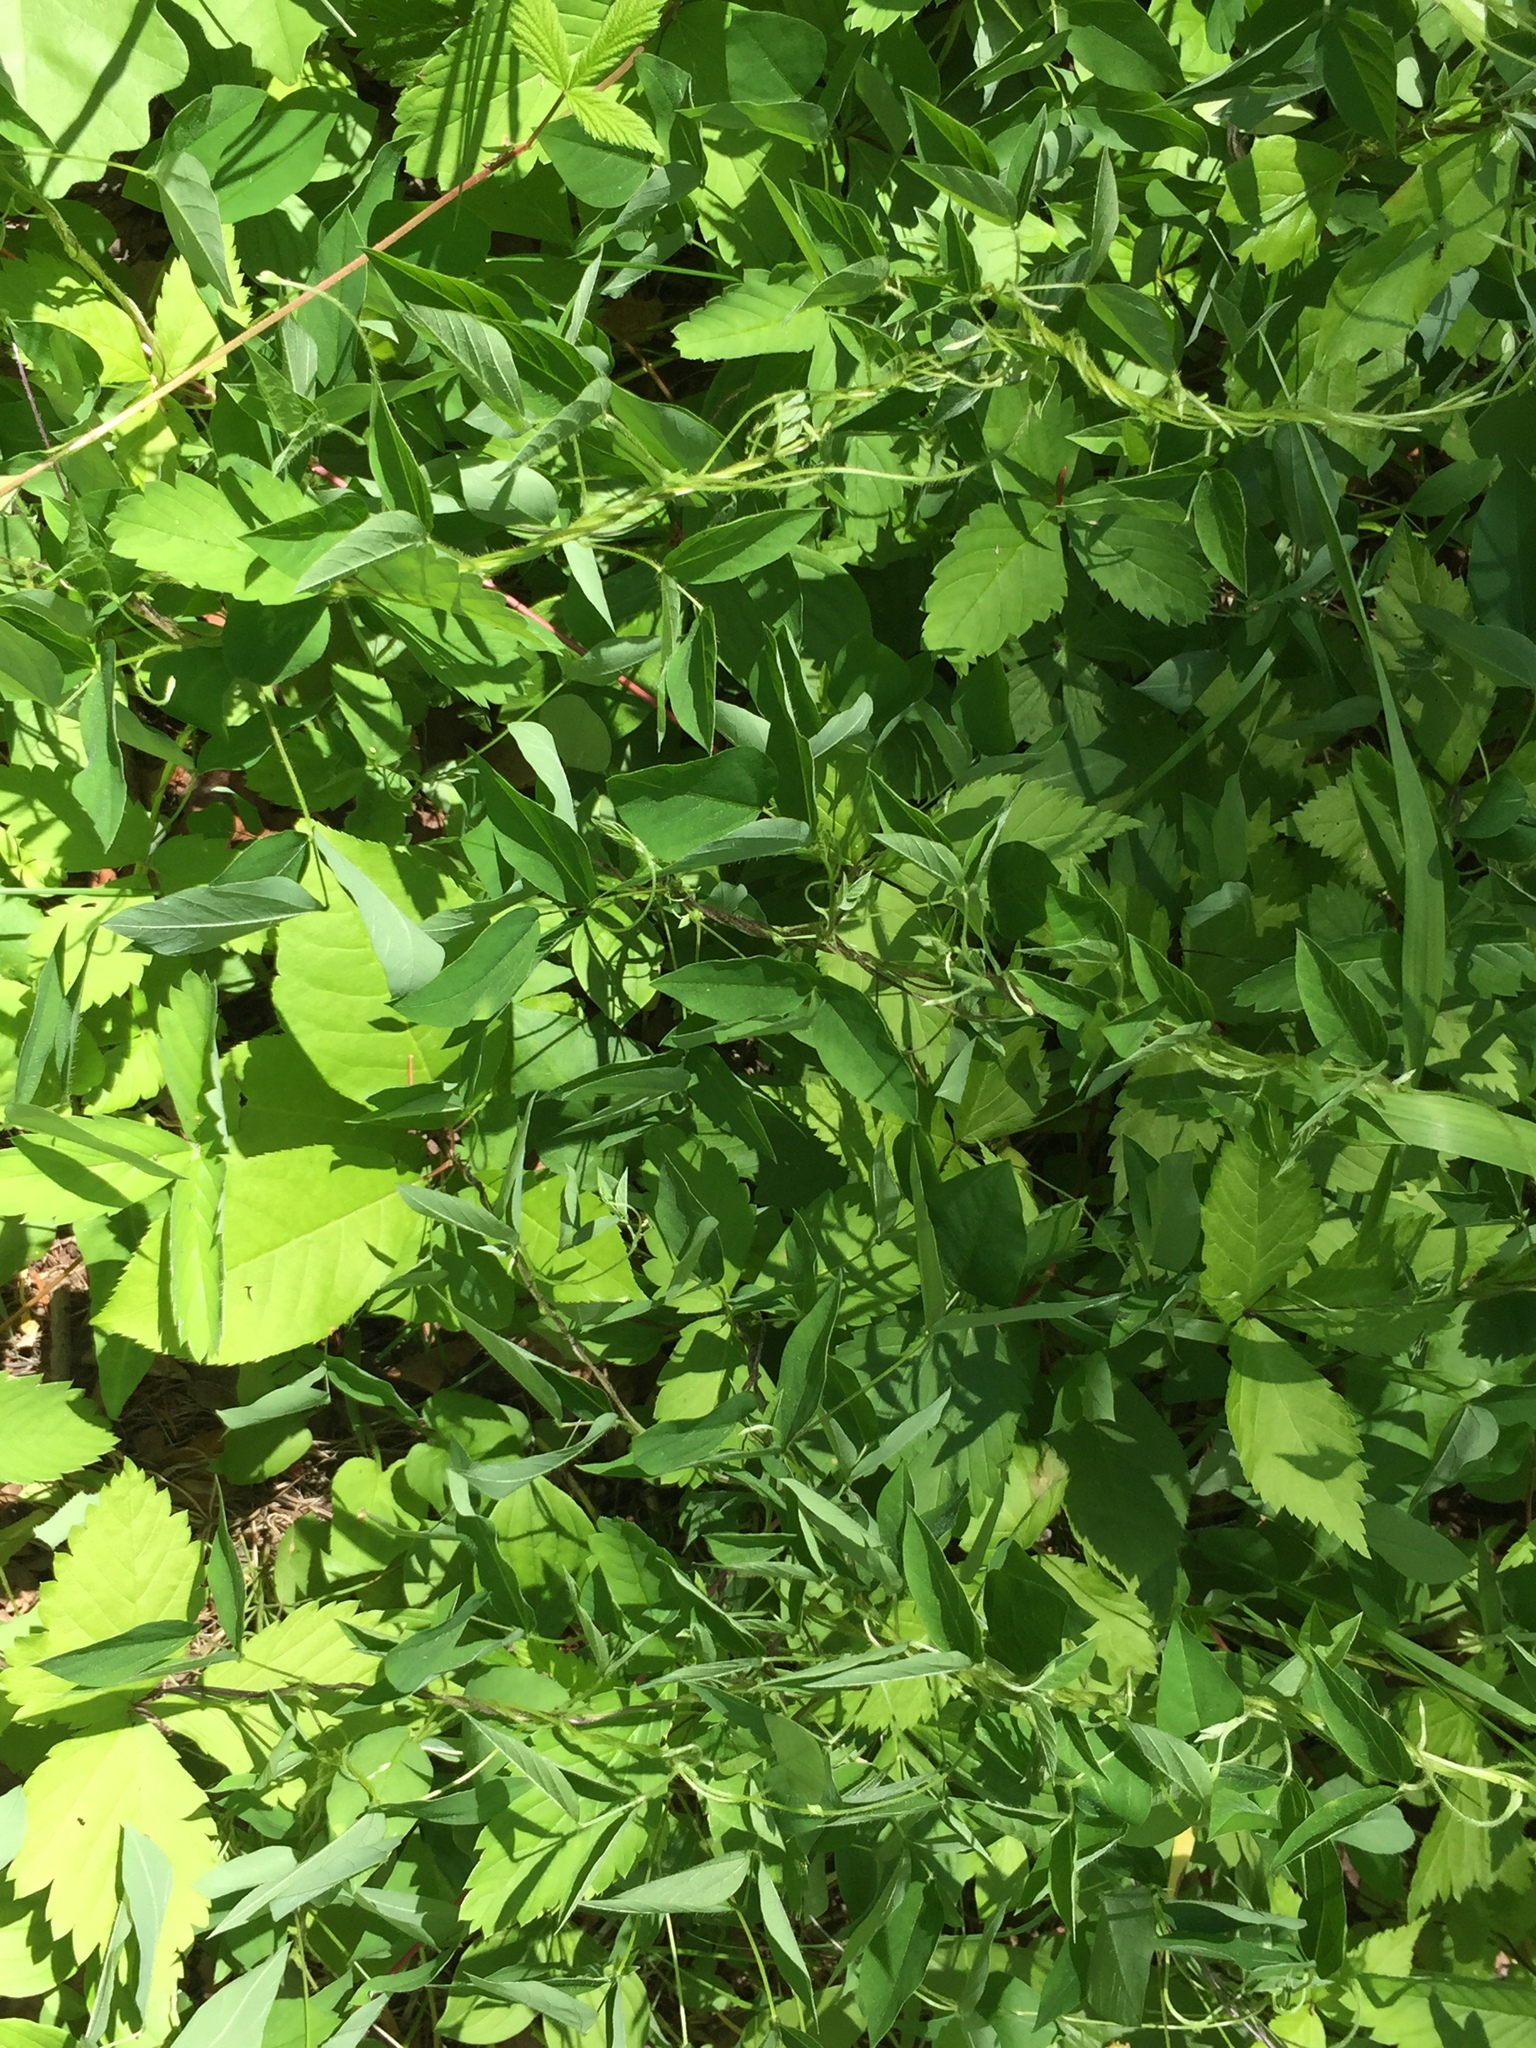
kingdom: Plantae
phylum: Tracheophyta
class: Magnoliopsida
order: Fabales
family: Fabaceae
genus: Amphicarpaea
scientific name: Amphicarpaea bracteata
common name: American hog peanut
